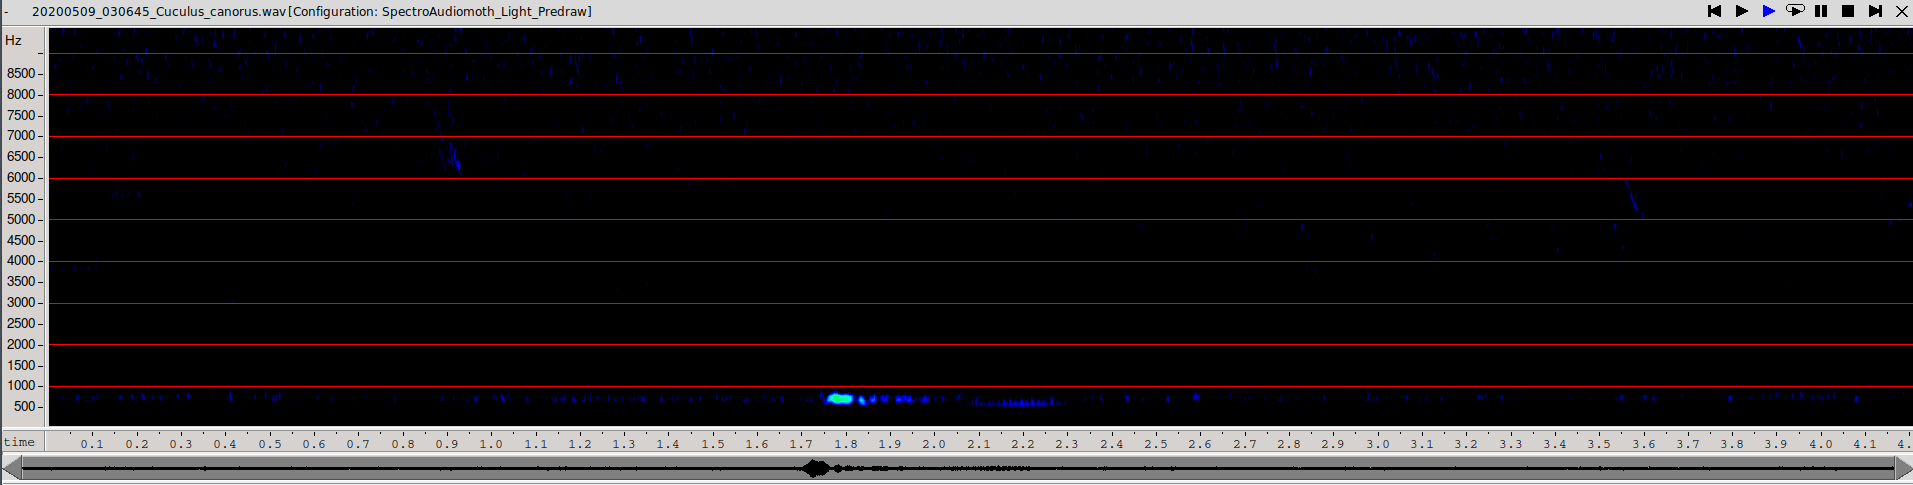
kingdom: Animalia
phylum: Chordata
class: Aves
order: Cuculiformes
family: Cuculidae
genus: Cuculus
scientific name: Cuculus canorus
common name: Common cuckoo
